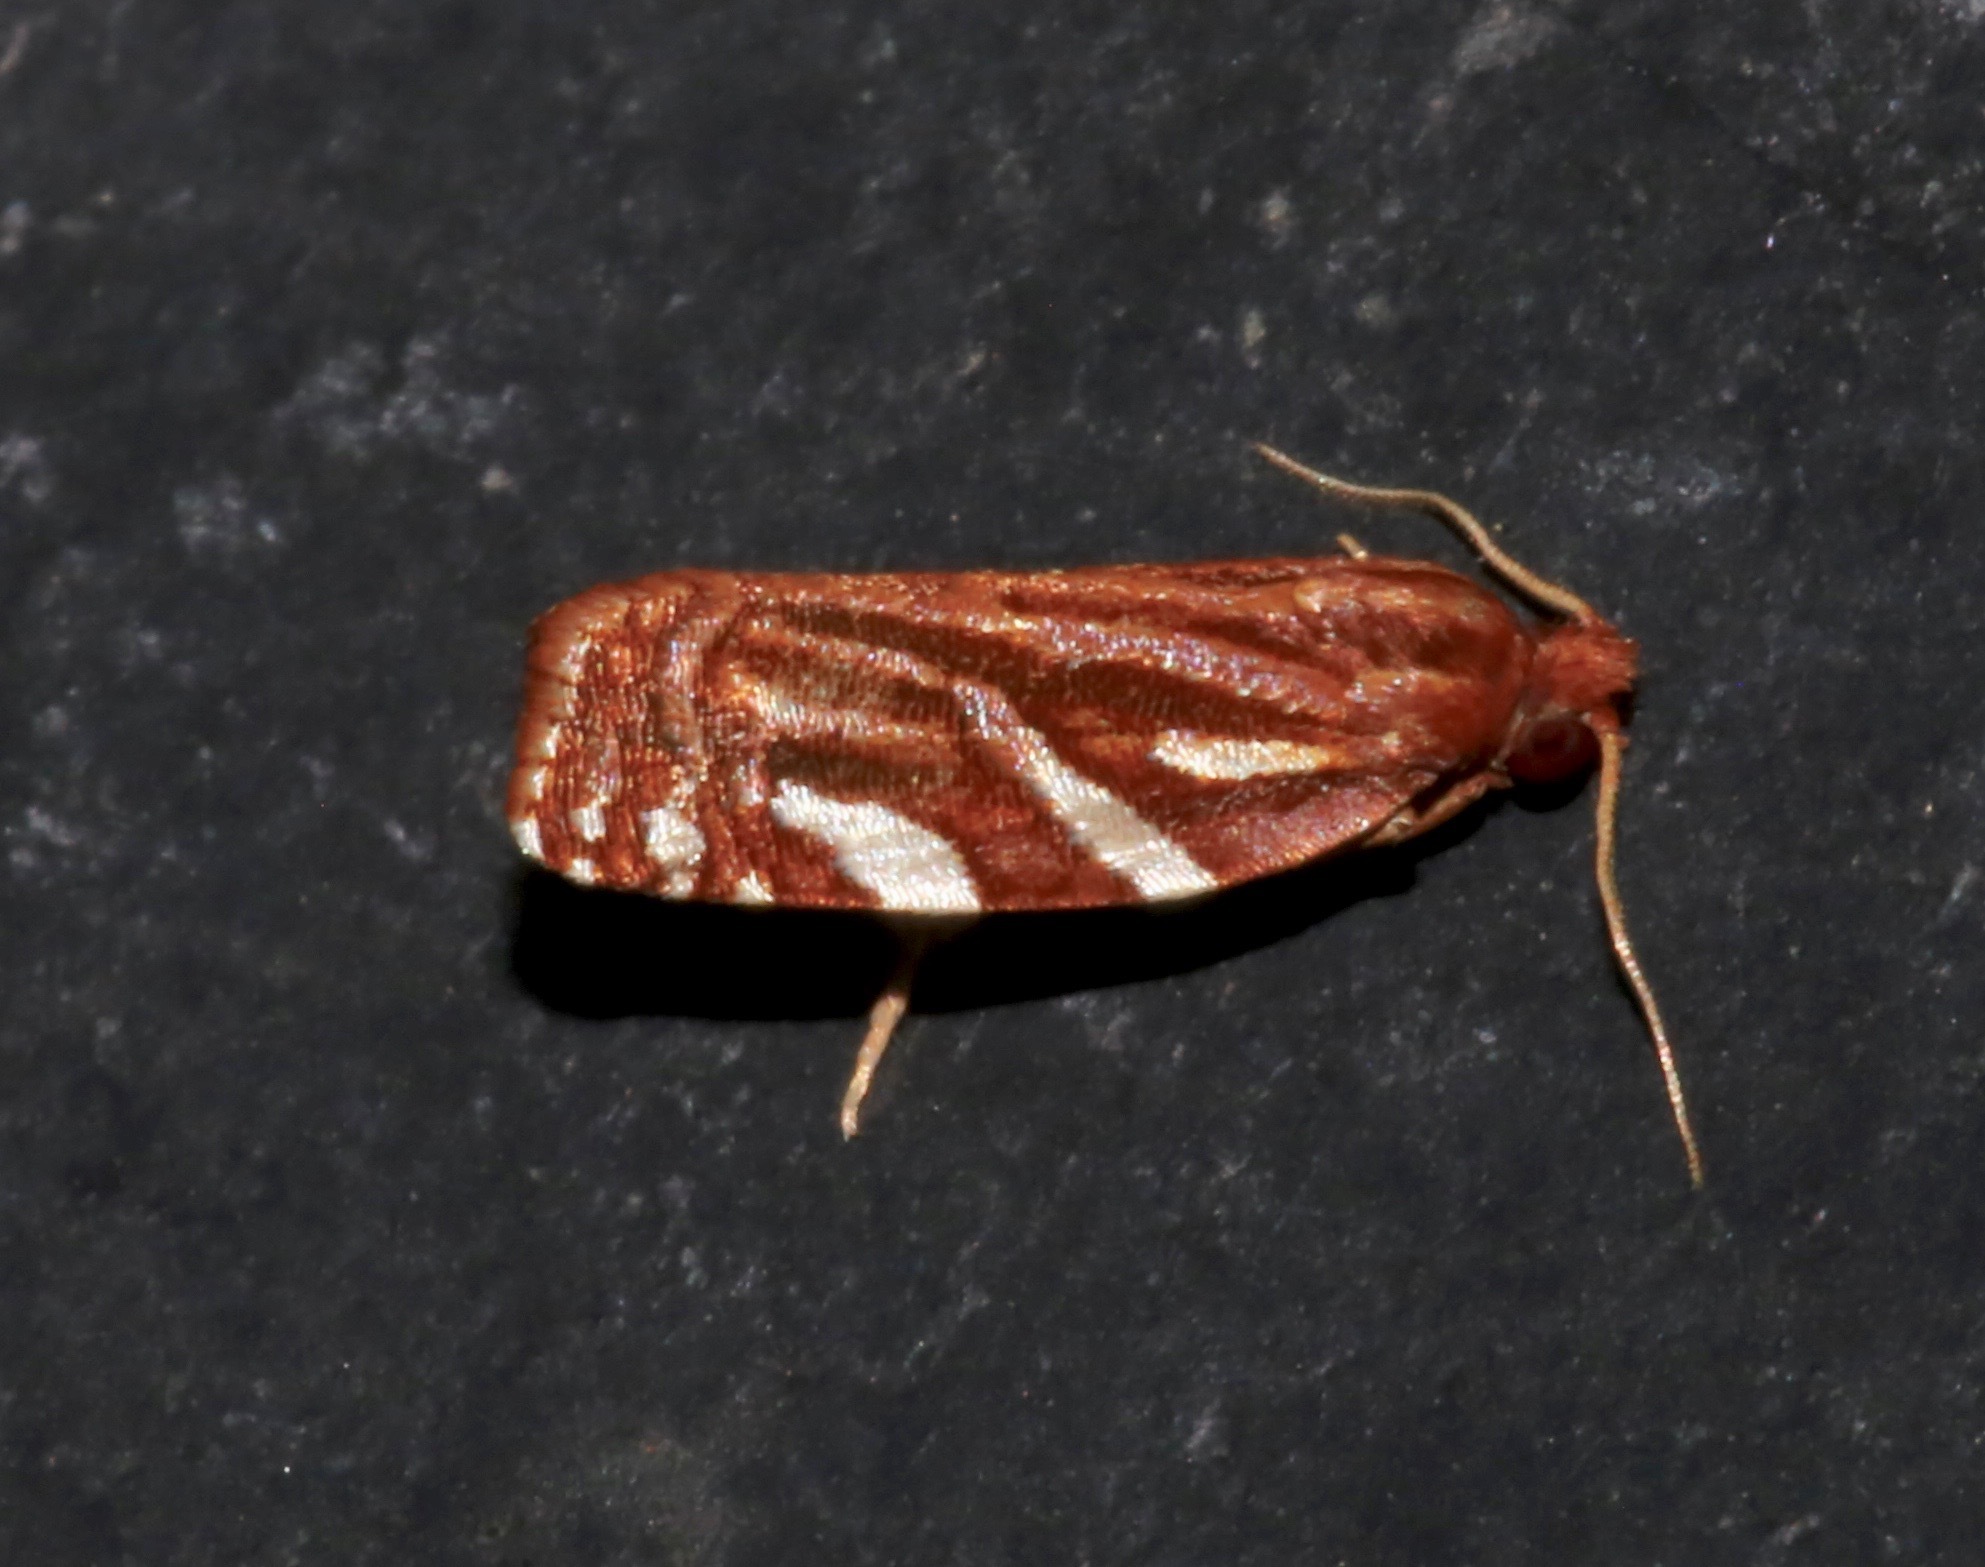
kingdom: Animalia
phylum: Arthropoda
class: Insecta
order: Lepidoptera
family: Tortricidae
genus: Choristoneura
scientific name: Choristoneura argentifasciata
